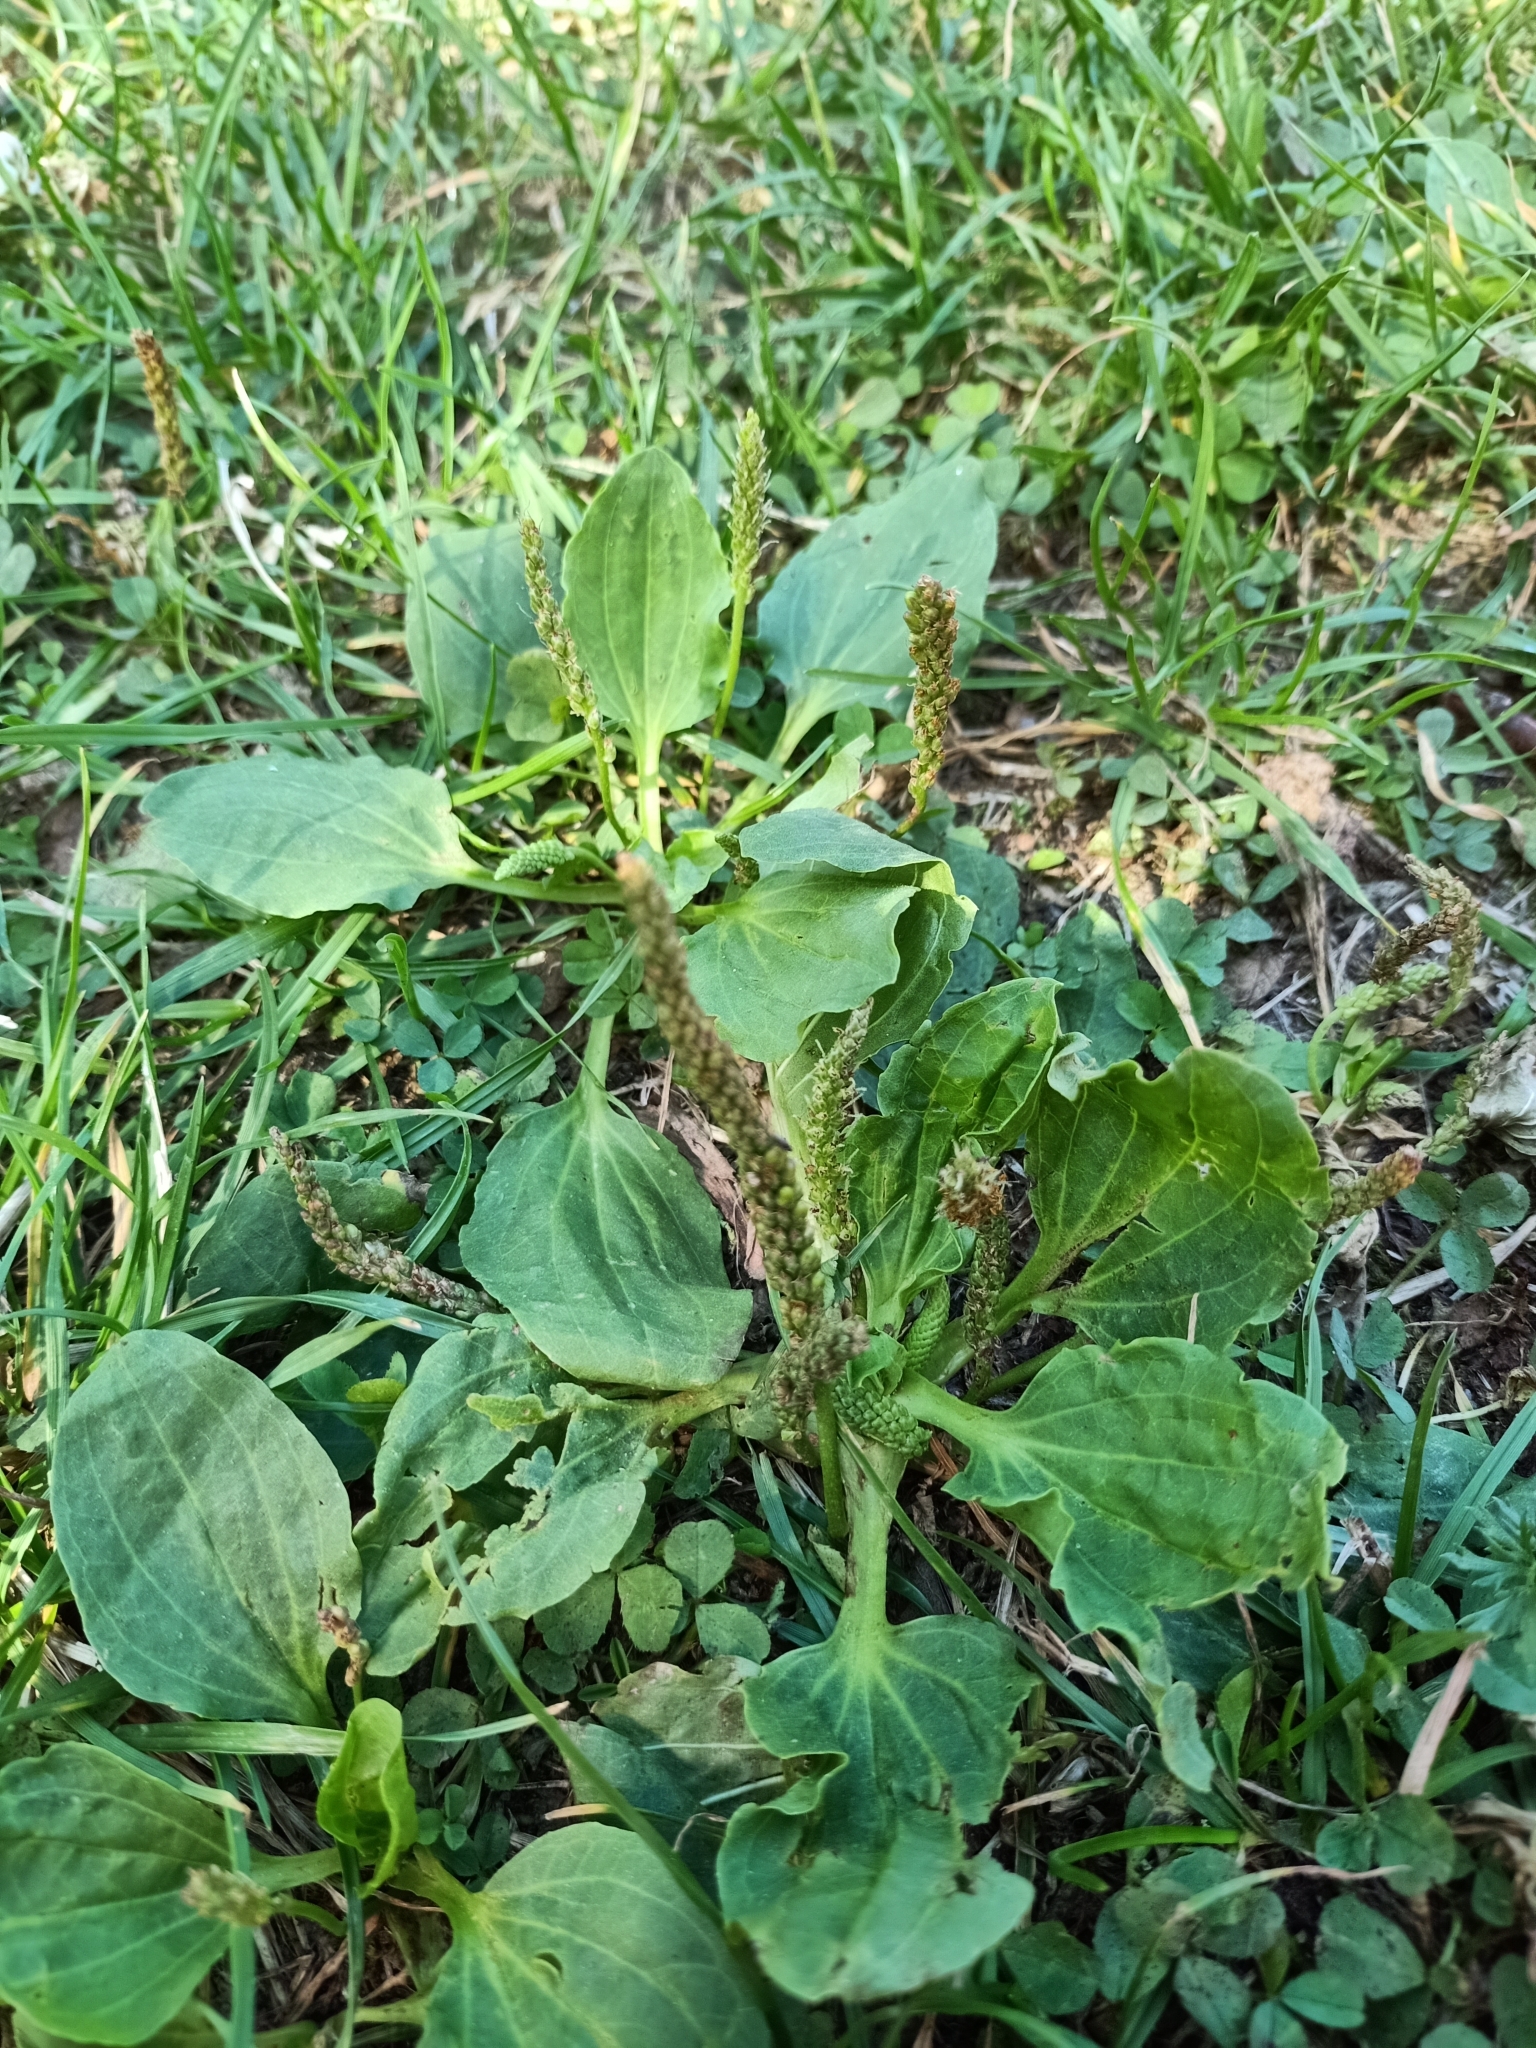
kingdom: Plantae
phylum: Tracheophyta
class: Magnoliopsida
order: Lamiales
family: Plantaginaceae
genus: Plantago
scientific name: Plantago major
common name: Common plantain
